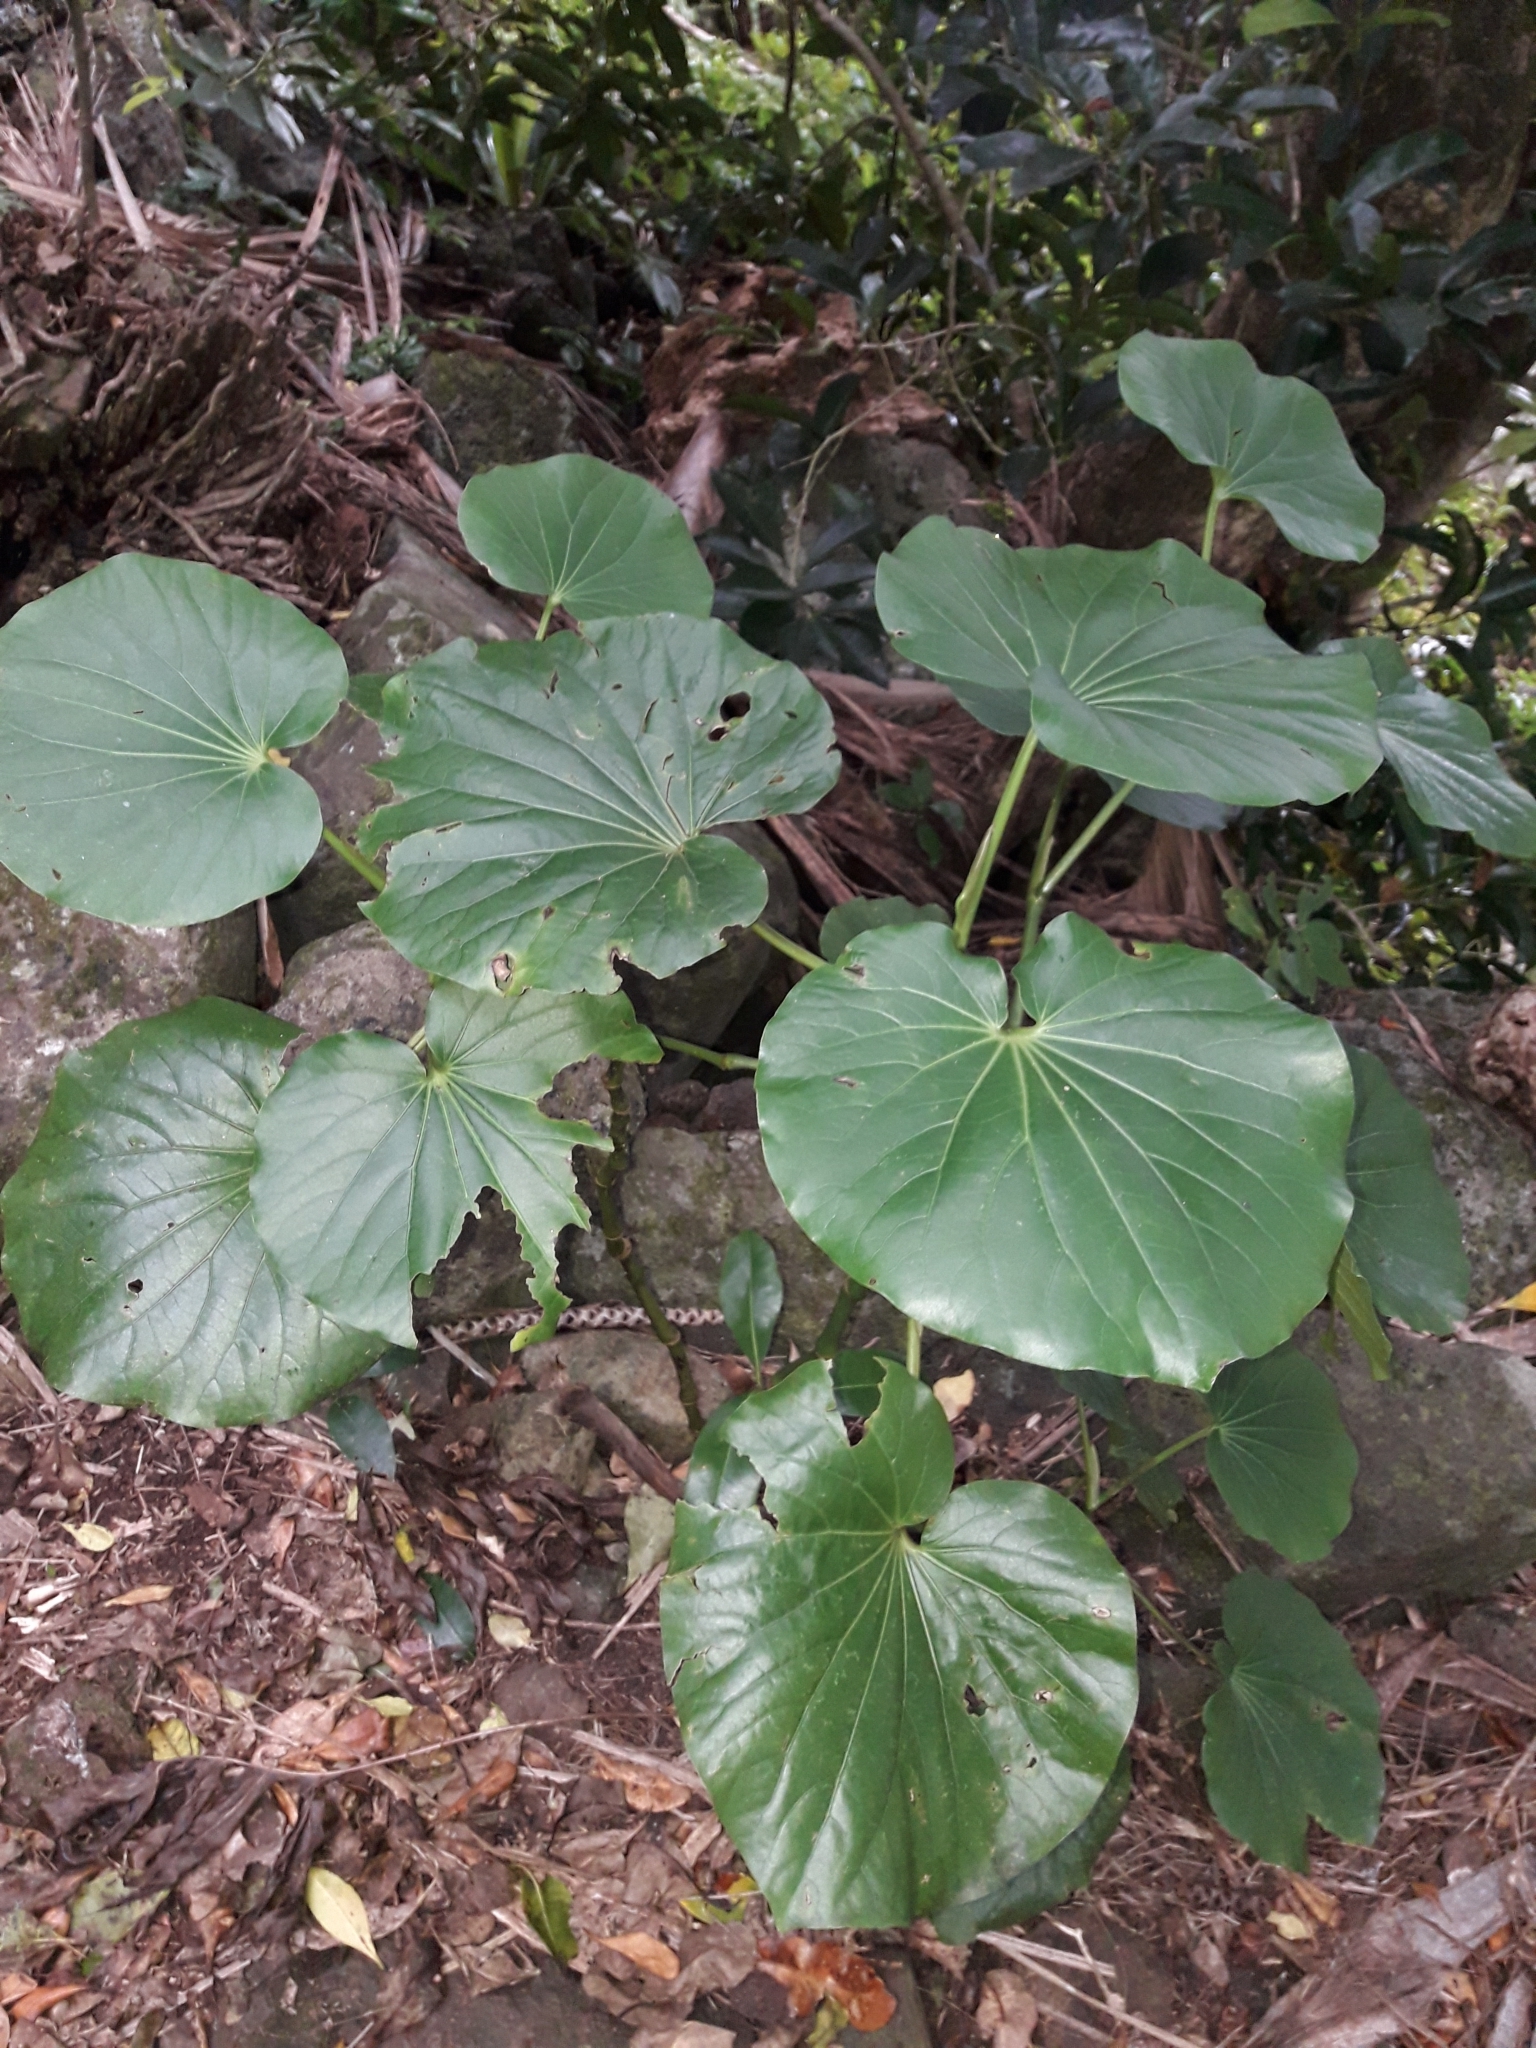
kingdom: Plantae
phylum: Tracheophyta
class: Magnoliopsida
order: Piperales
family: Piperaceae
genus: Macropiper
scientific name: Macropiper hooglandii
